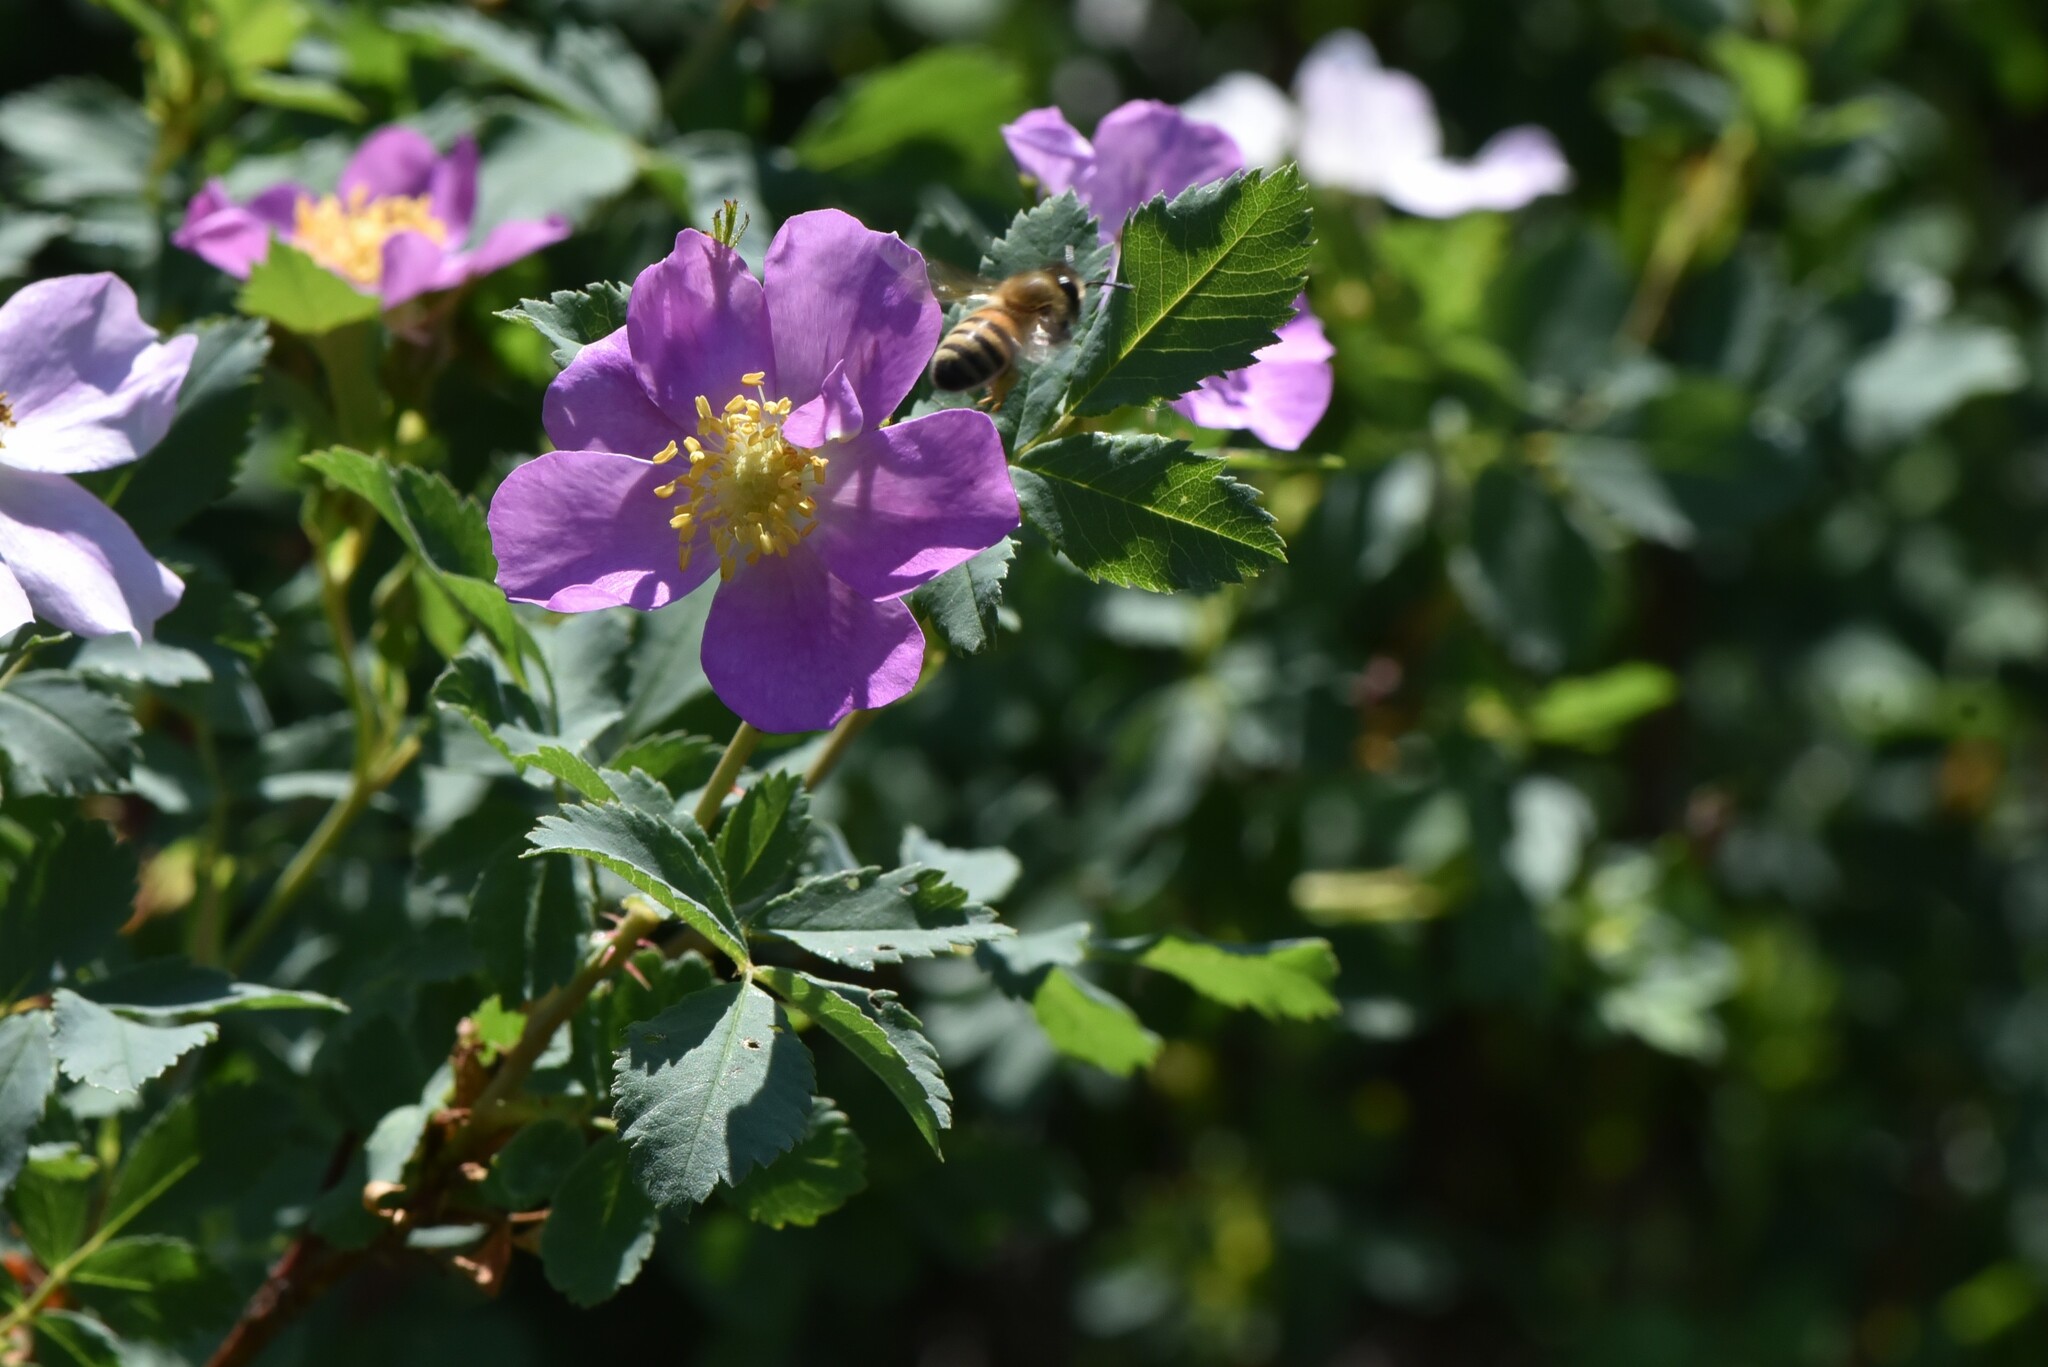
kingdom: Animalia
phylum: Arthropoda
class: Insecta
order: Hymenoptera
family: Apidae
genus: Apis
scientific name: Apis mellifera
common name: Honey bee
